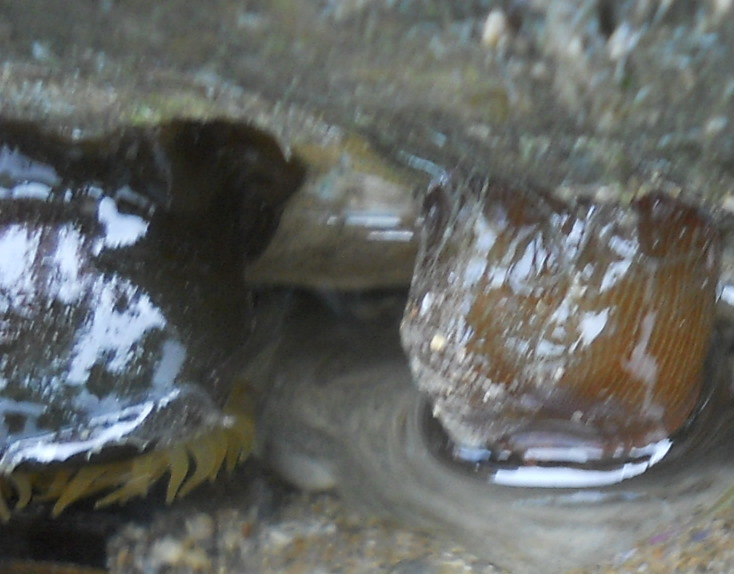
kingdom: Animalia
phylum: Cnidaria
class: Anthozoa
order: Actiniaria
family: Actiniidae
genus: Actinia
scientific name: Actinia equina
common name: Beadlet anemone
